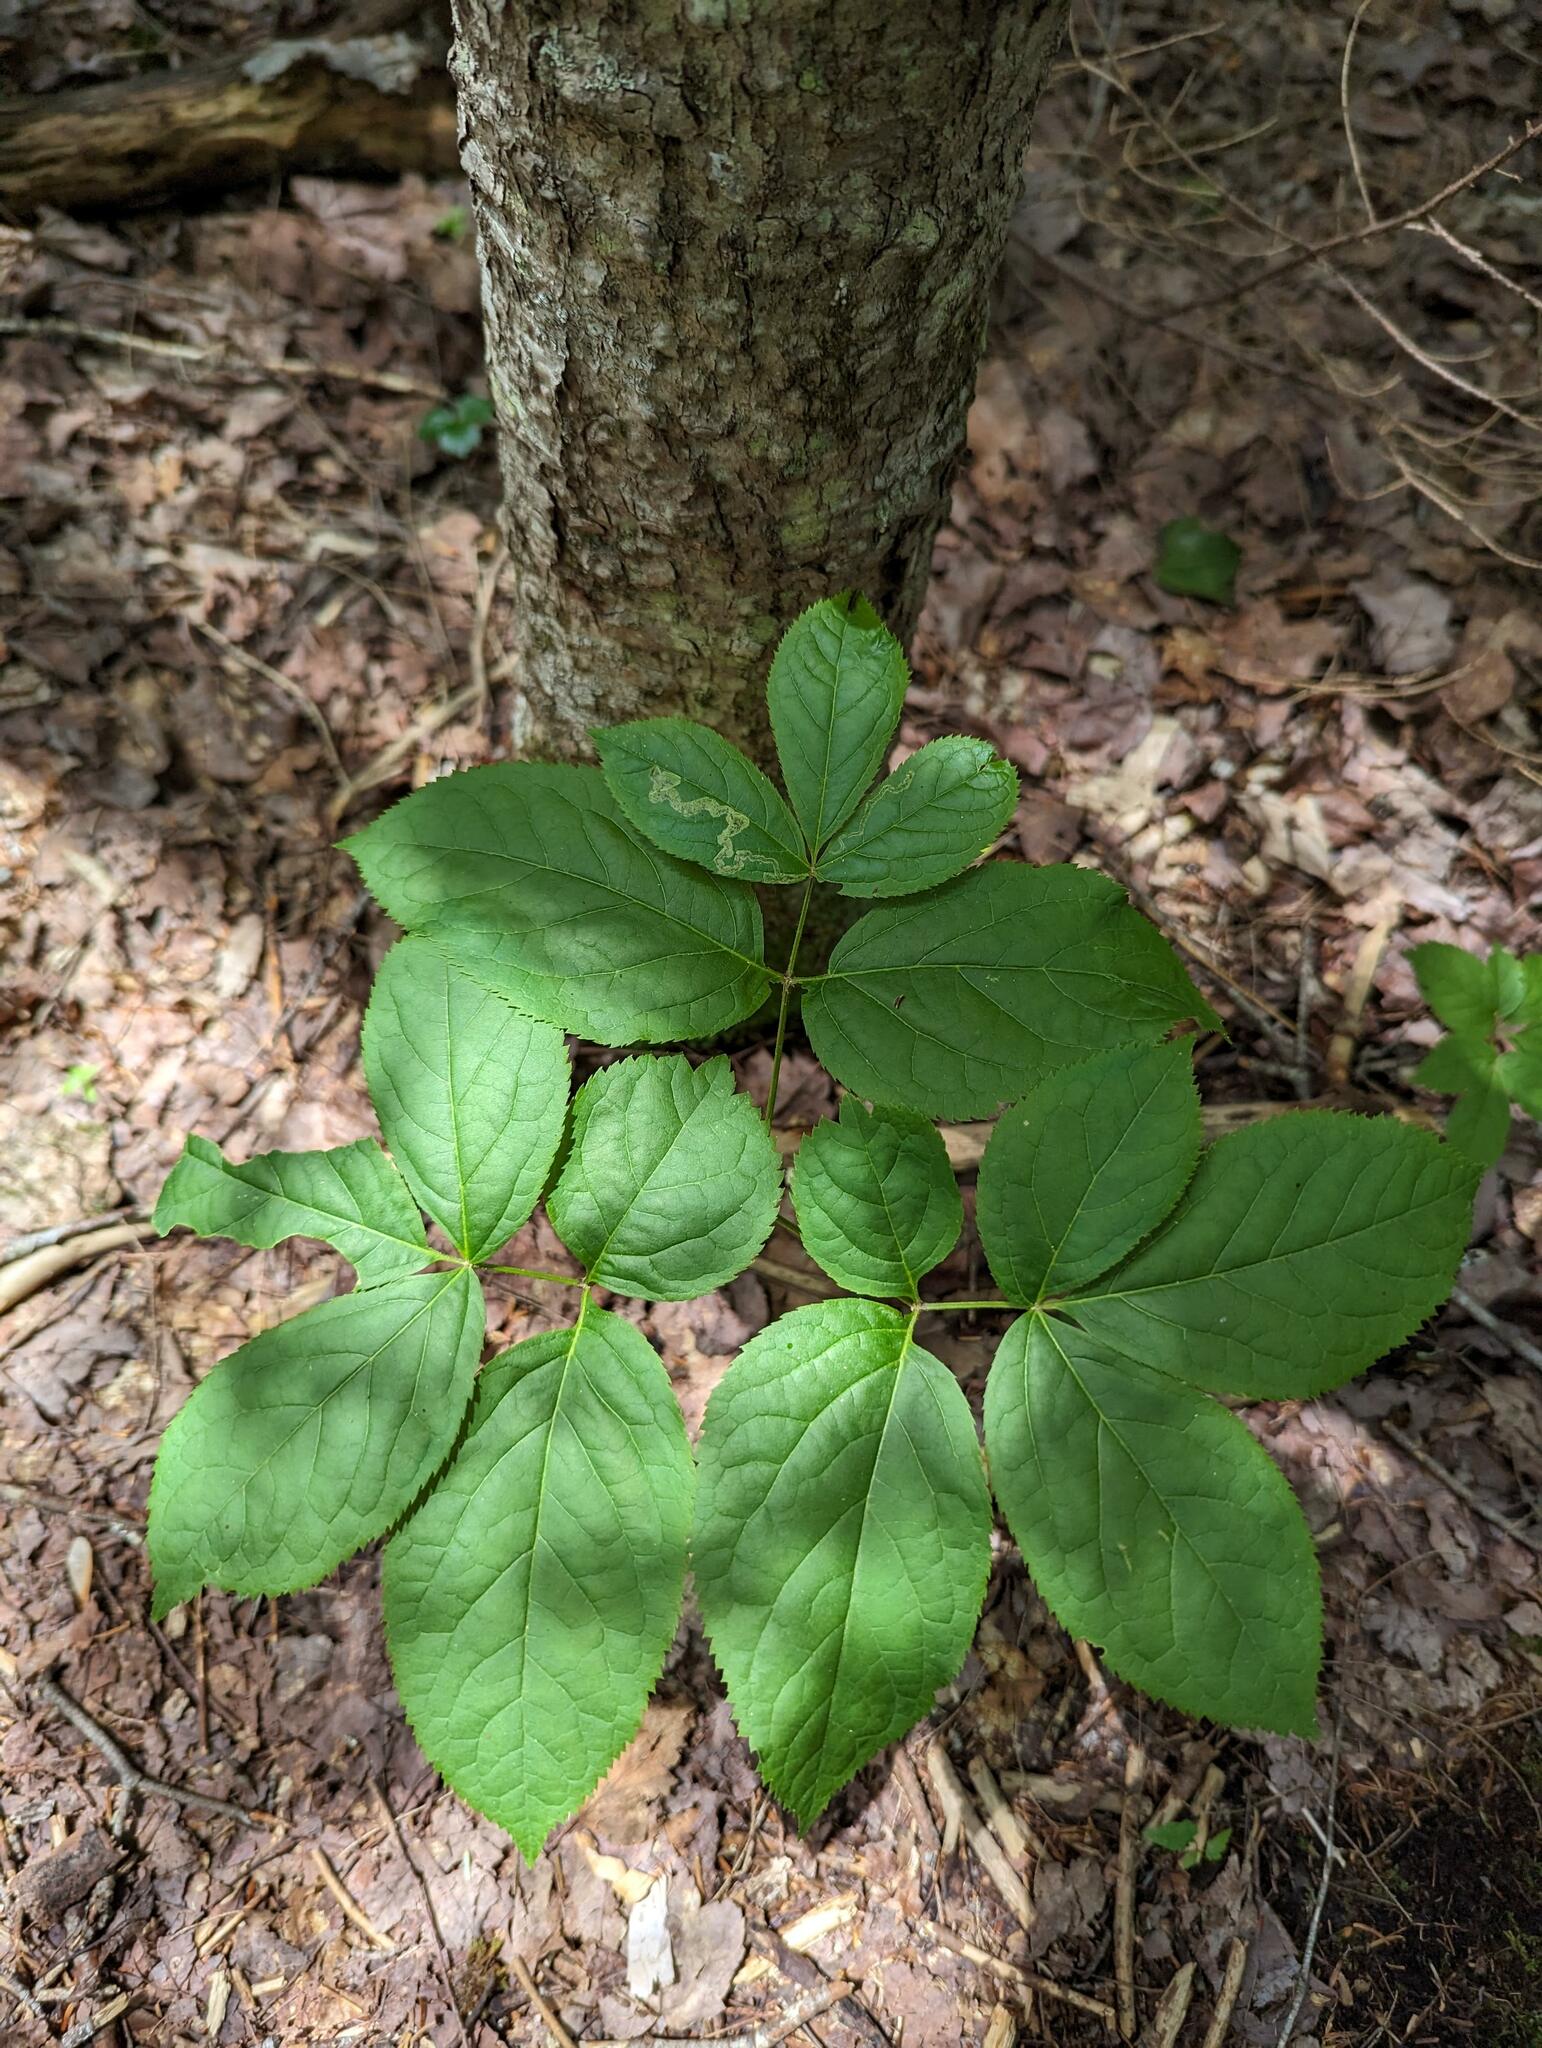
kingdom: Plantae
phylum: Tracheophyta
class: Magnoliopsida
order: Apiales
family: Araliaceae
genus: Aralia
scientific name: Aralia nudicaulis
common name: Wild sarsaparilla
